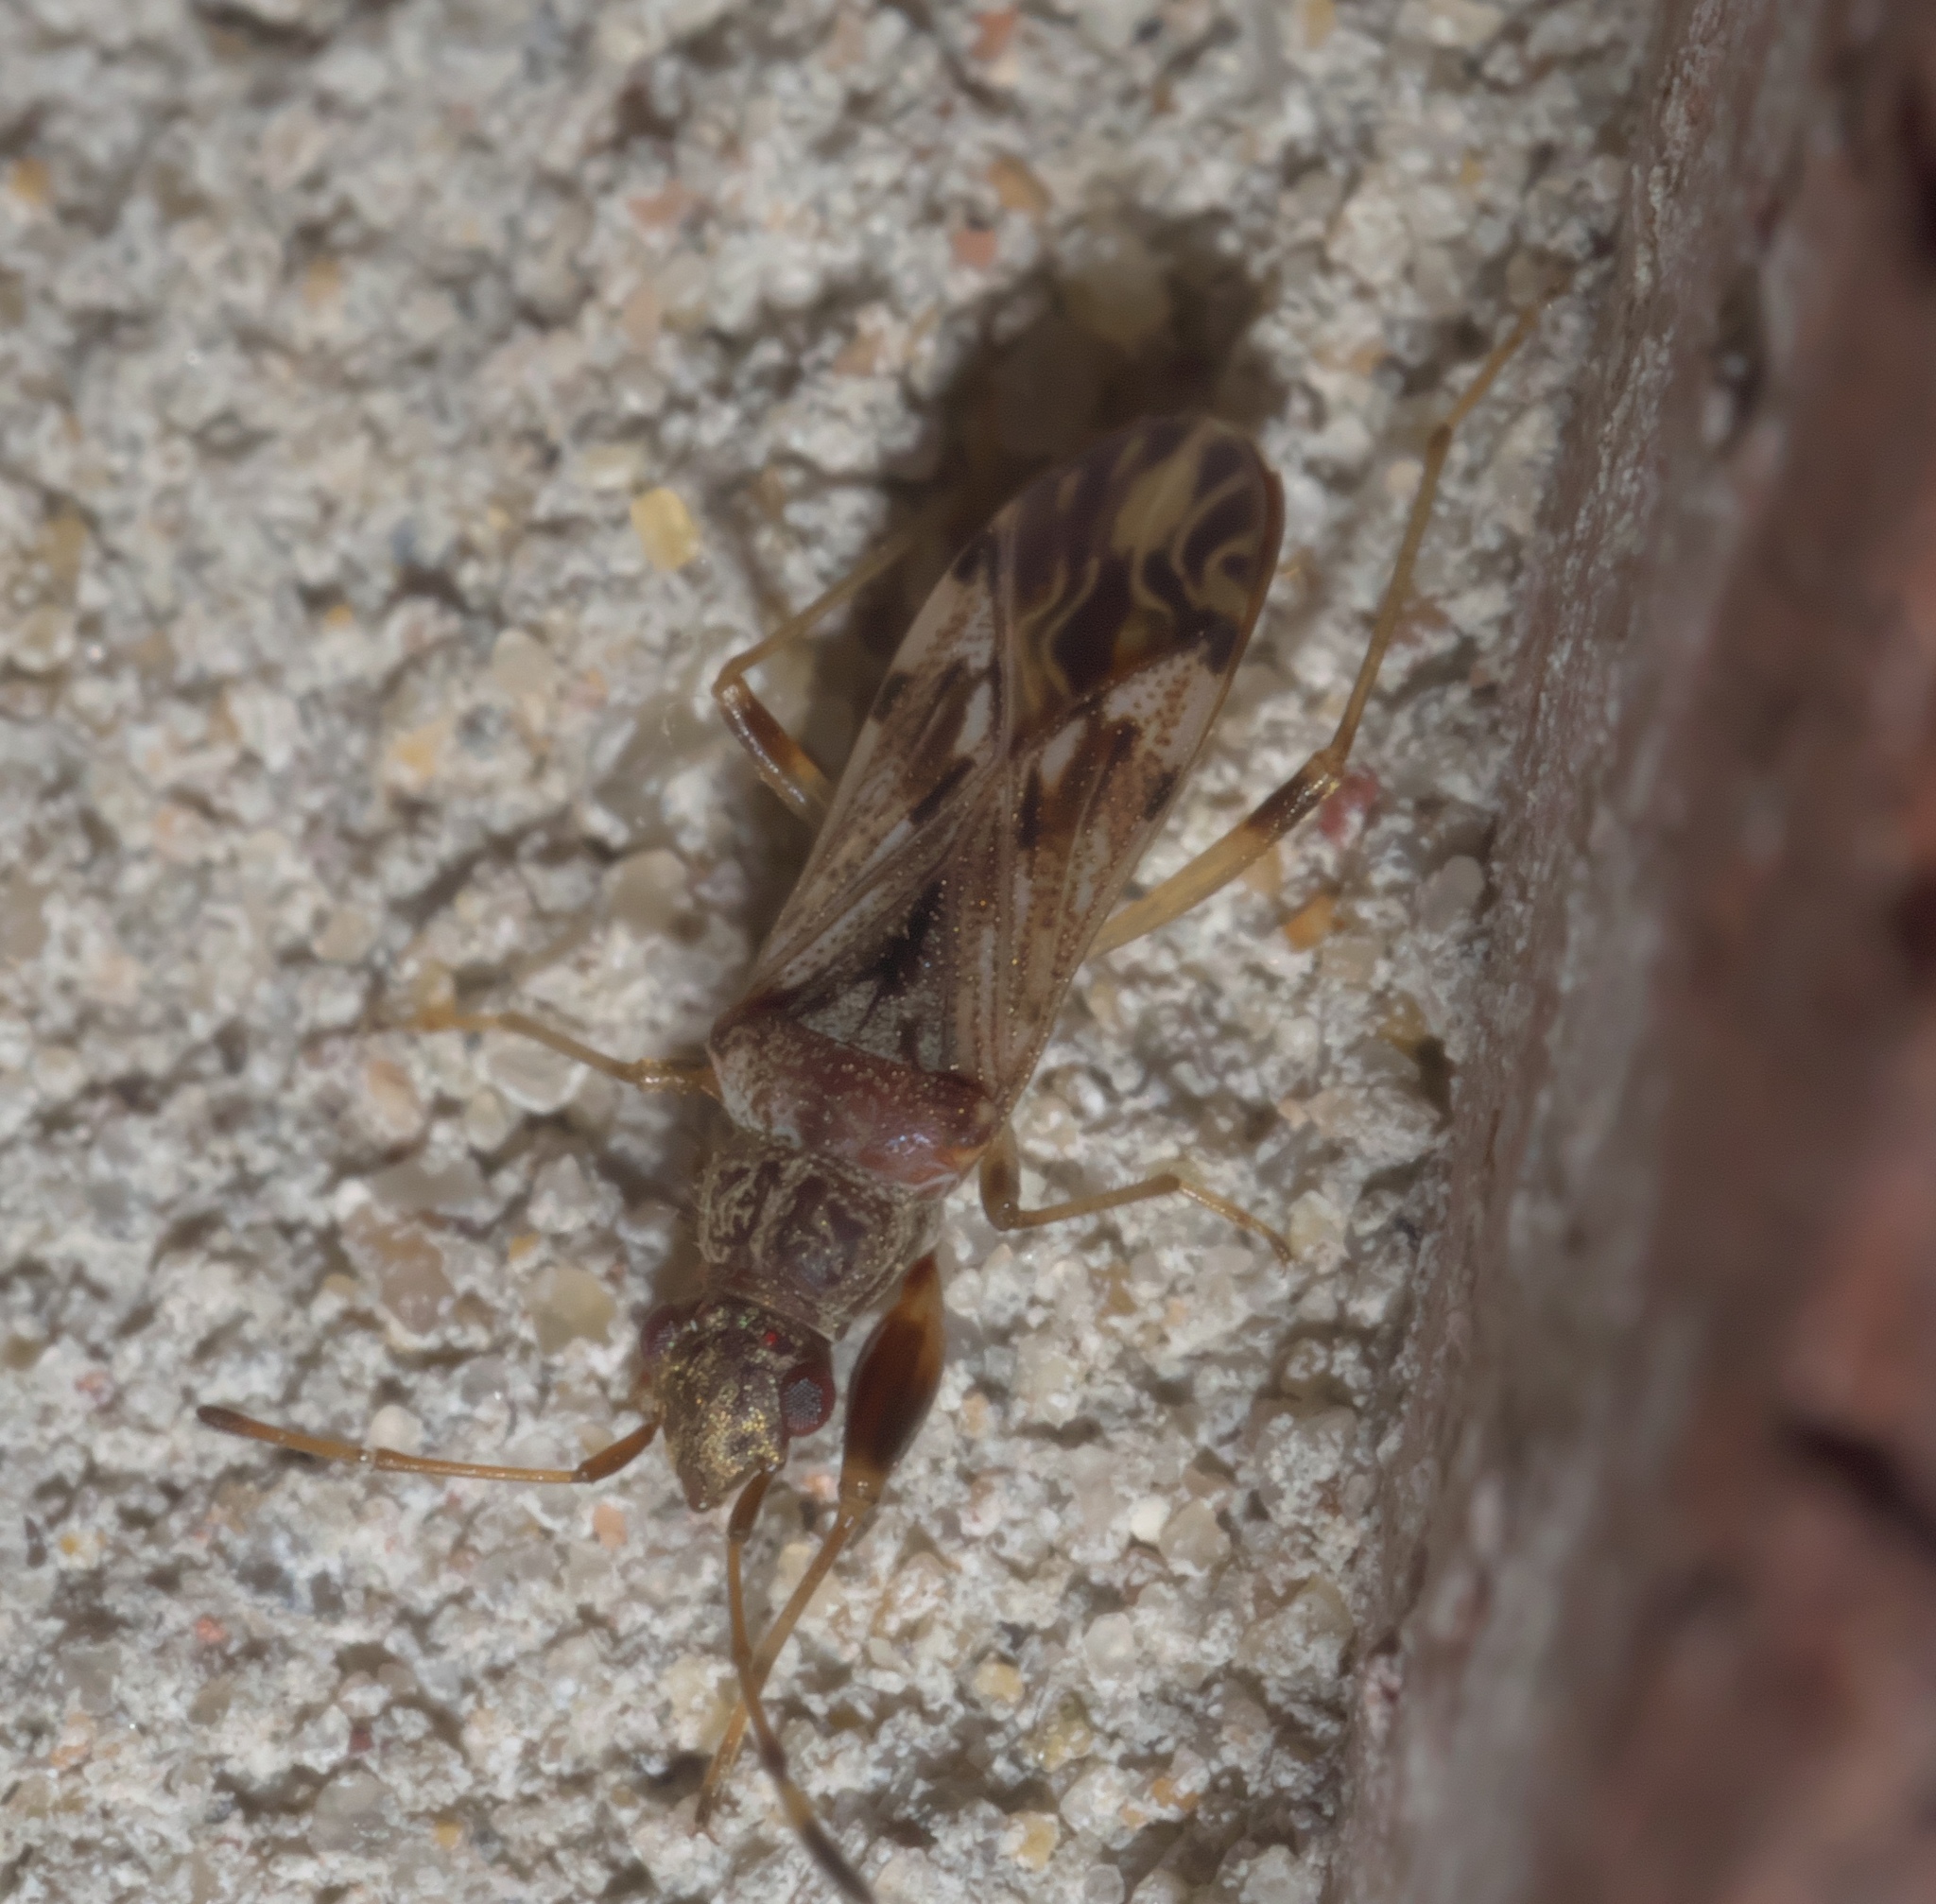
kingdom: Animalia
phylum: Arthropoda
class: Insecta
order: Hemiptera
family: Rhyparochromidae
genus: Neopamera
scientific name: Neopamera albocincta
